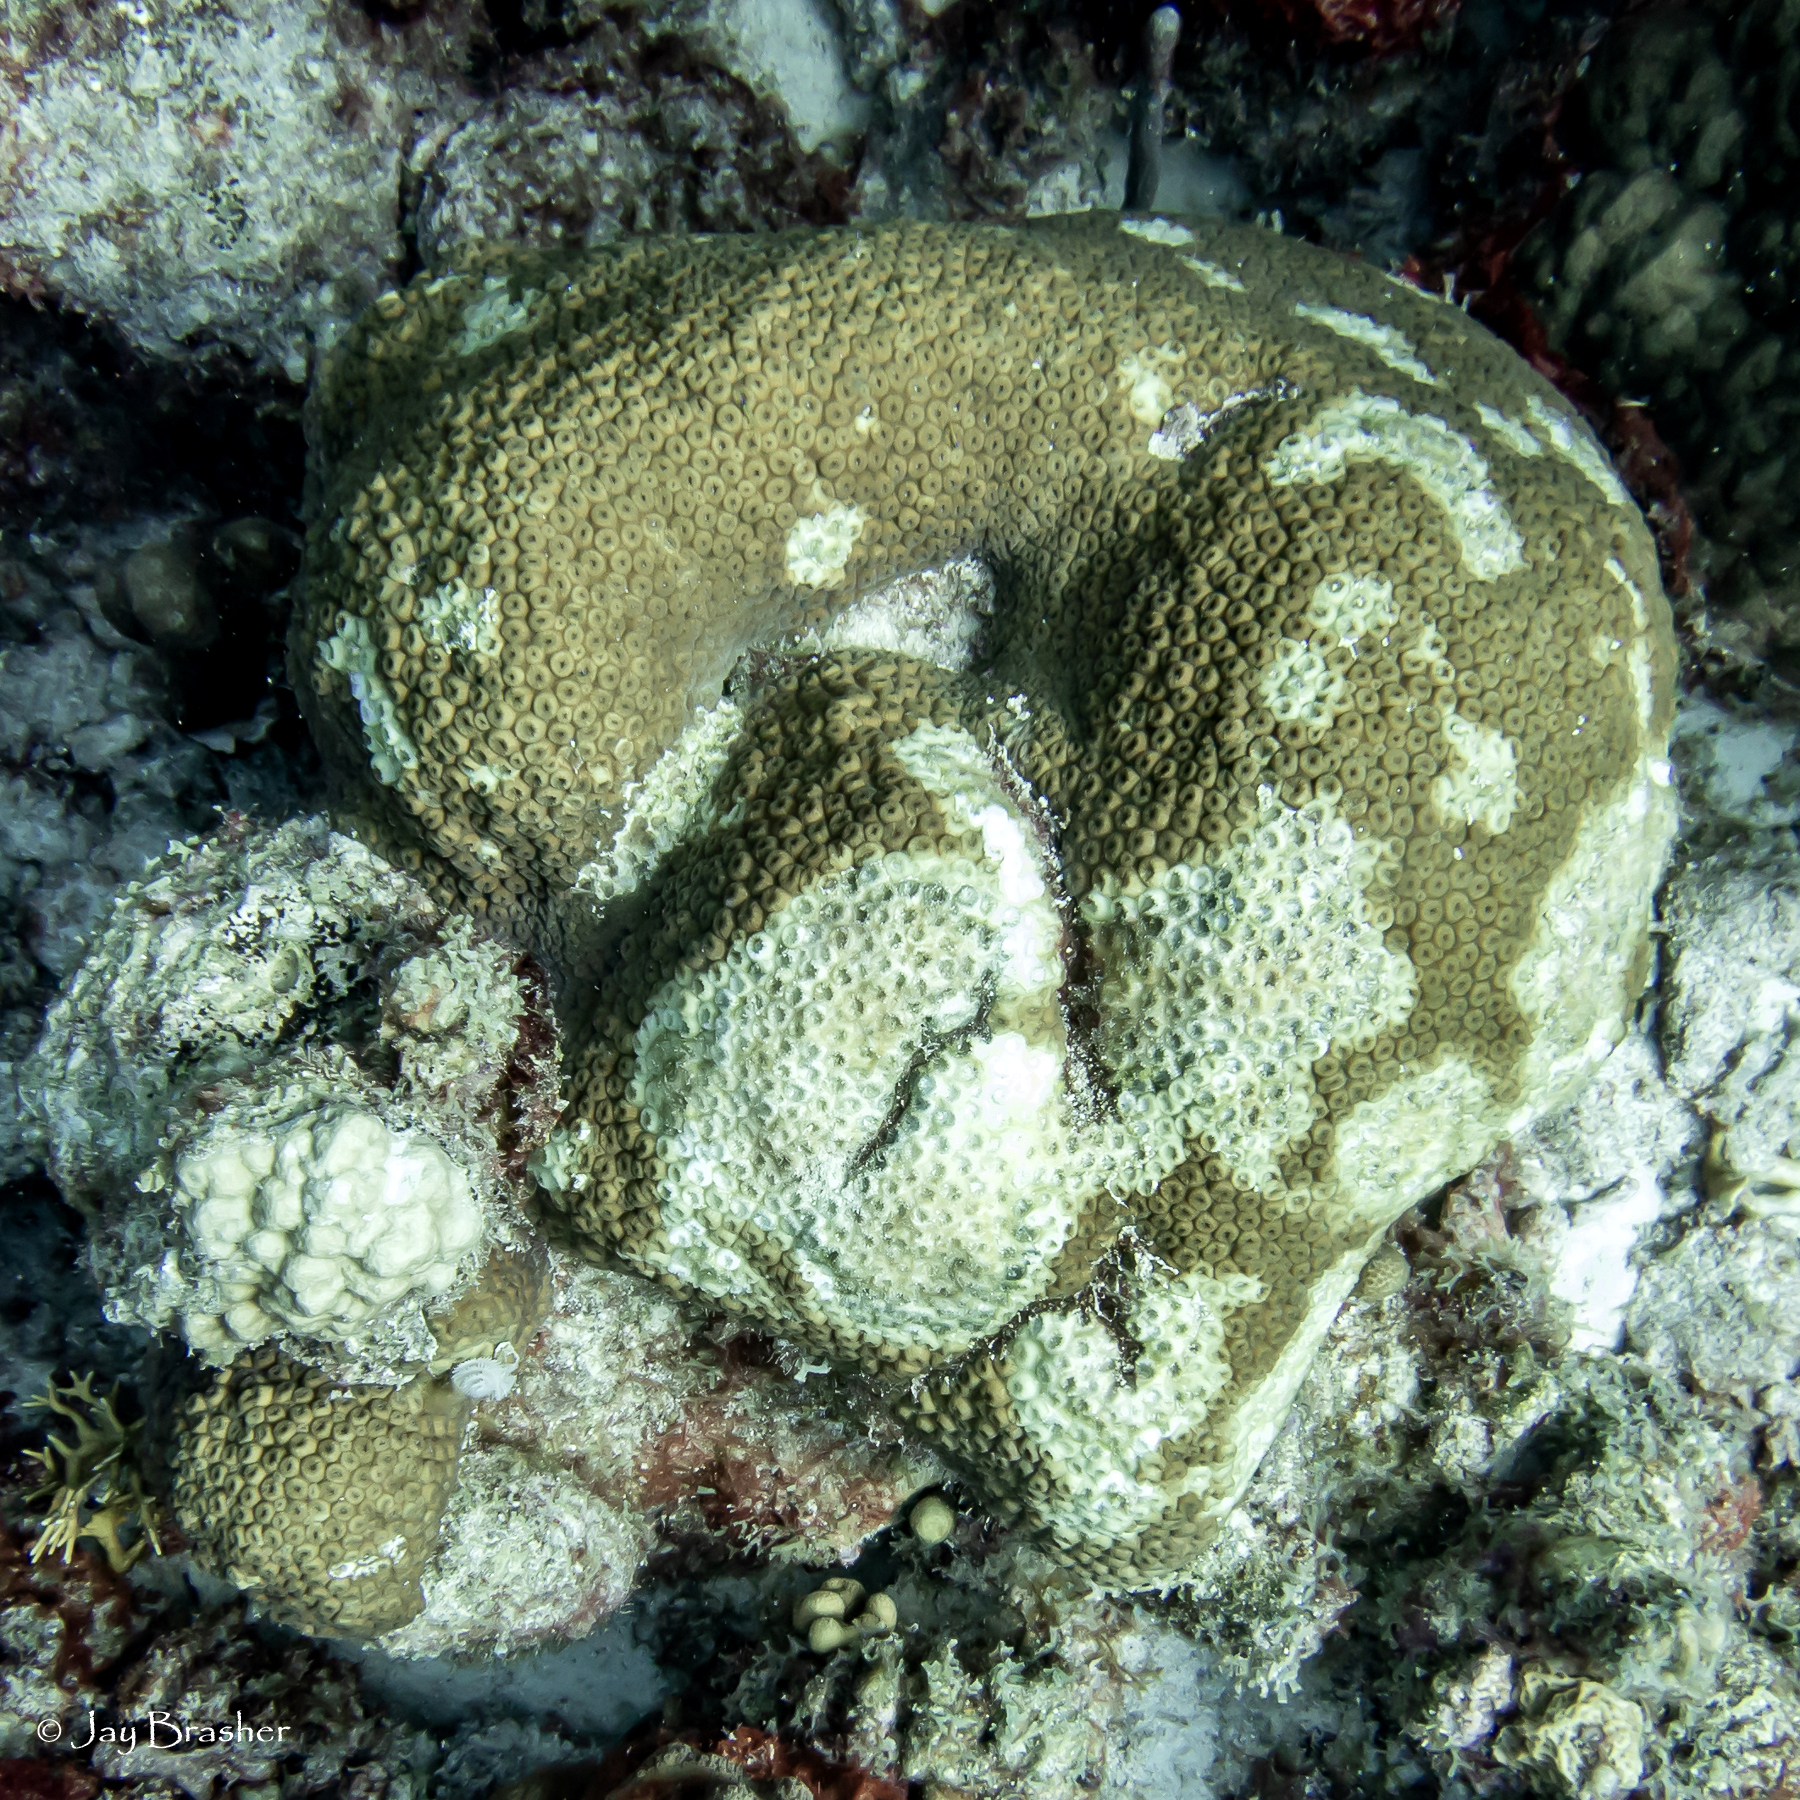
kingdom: Animalia
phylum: Cnidaria
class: Anthozoa
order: Scleractinia
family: Montastraeidae
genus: Montastraea
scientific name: Montastraea cavernosa
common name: Great star coral
